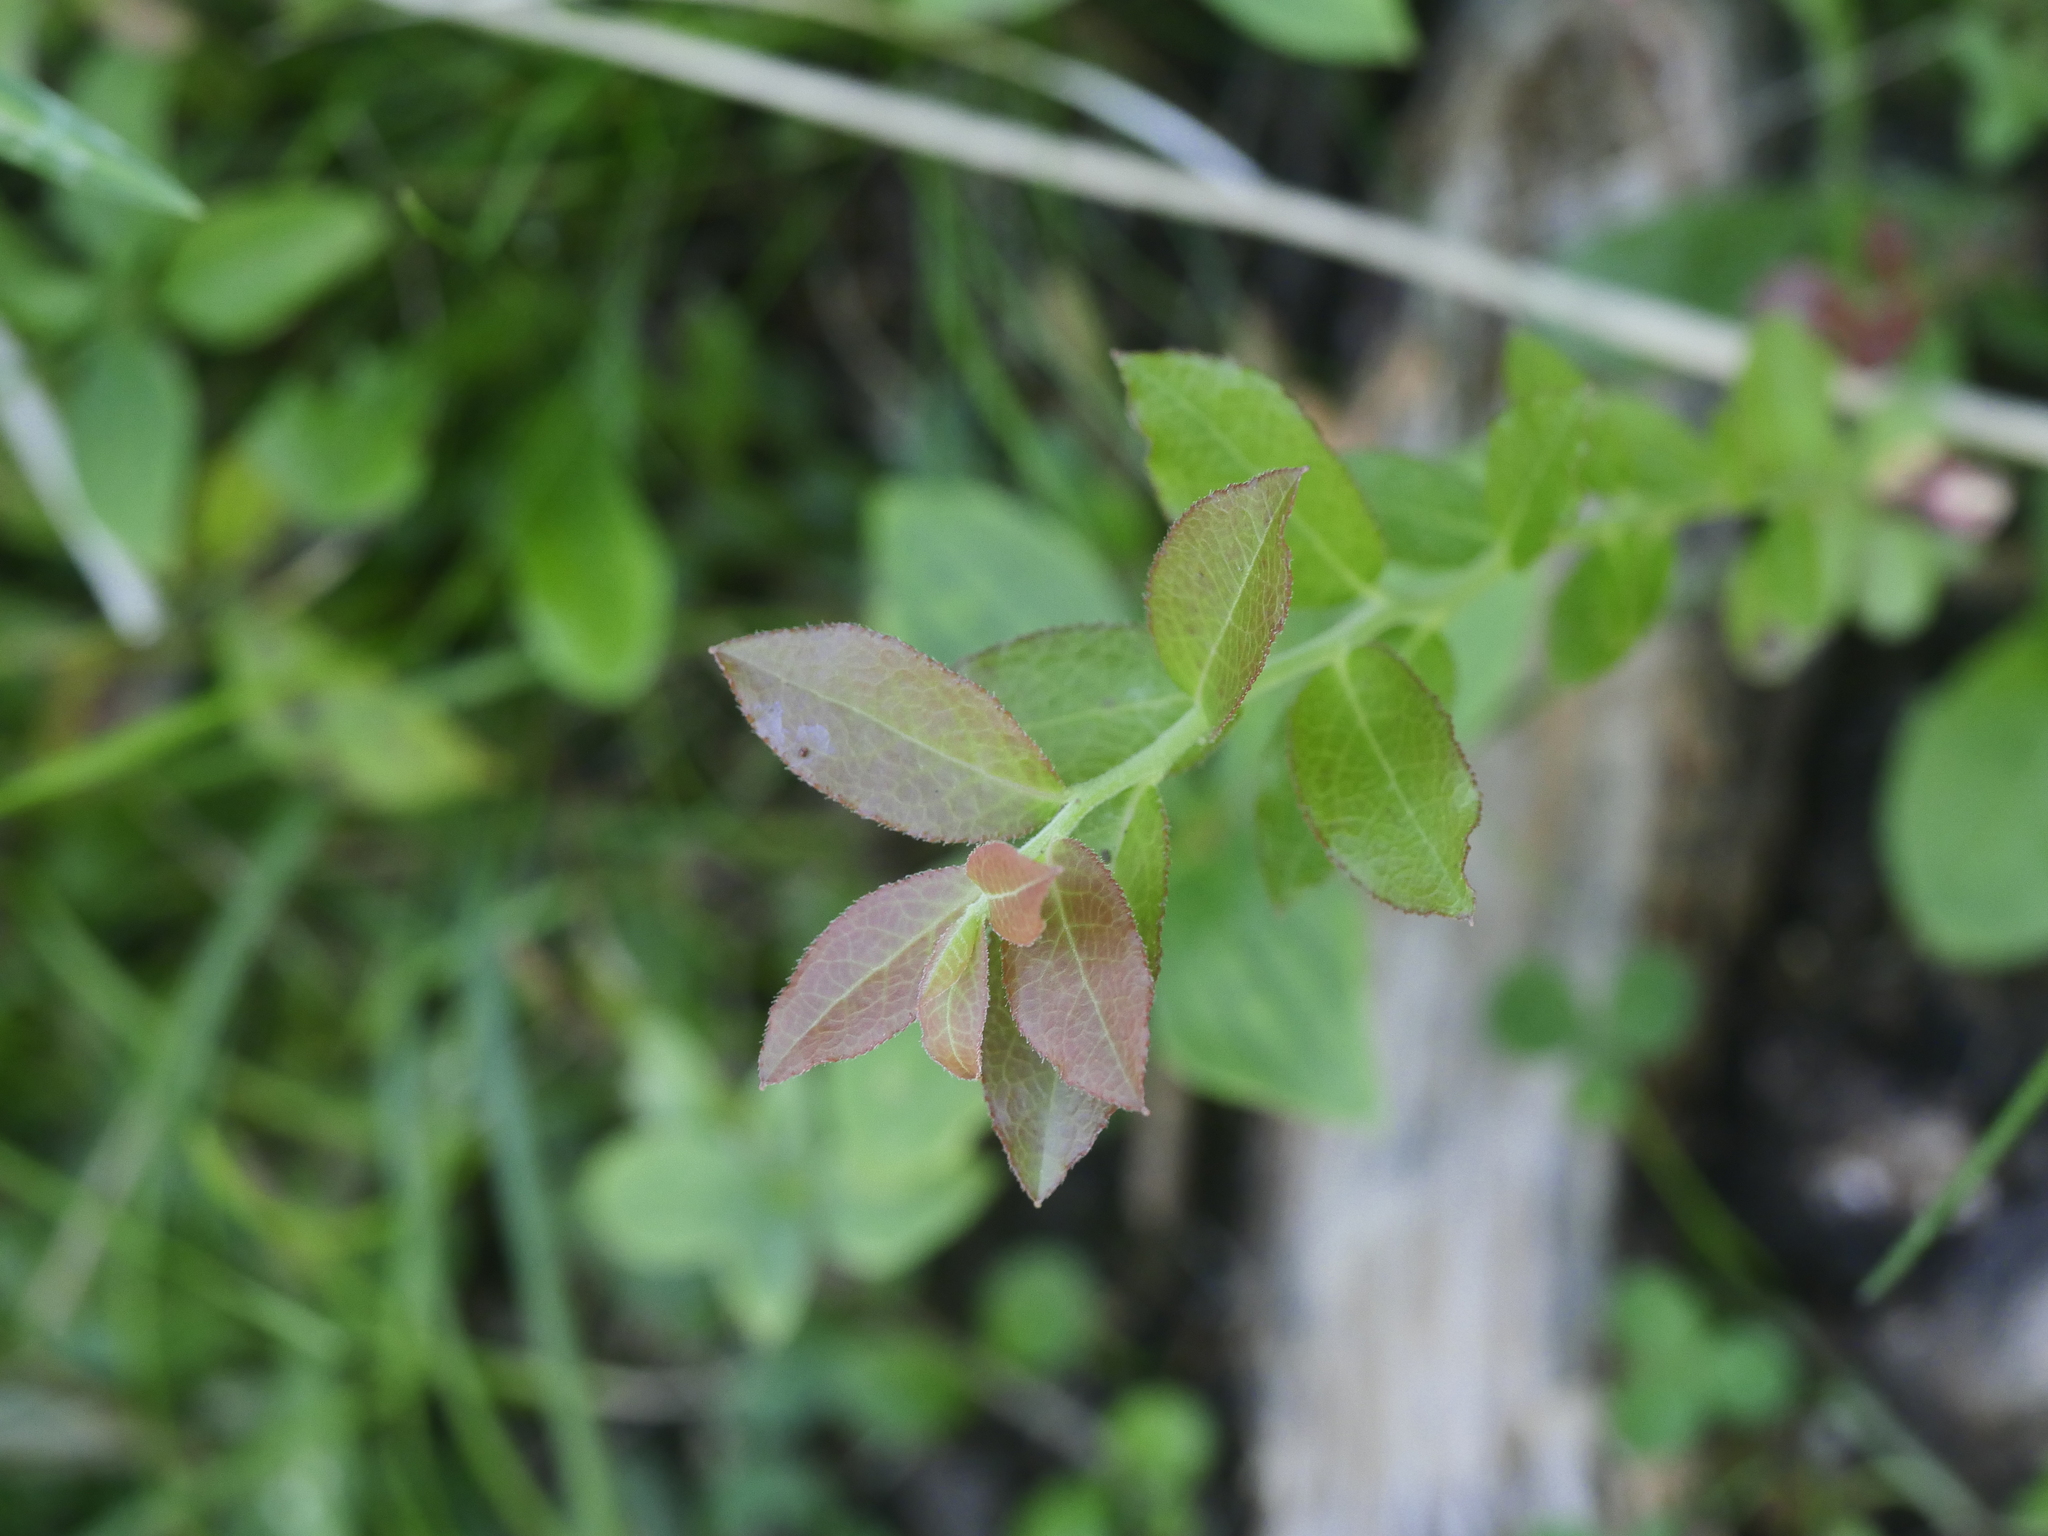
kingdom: Plantae
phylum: Tracheophyta
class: Magnoliopsida
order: Ericales
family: Ericaceae
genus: Vaccinium
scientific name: Vaccinium angustifolium
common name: Early lowbush blueberry
